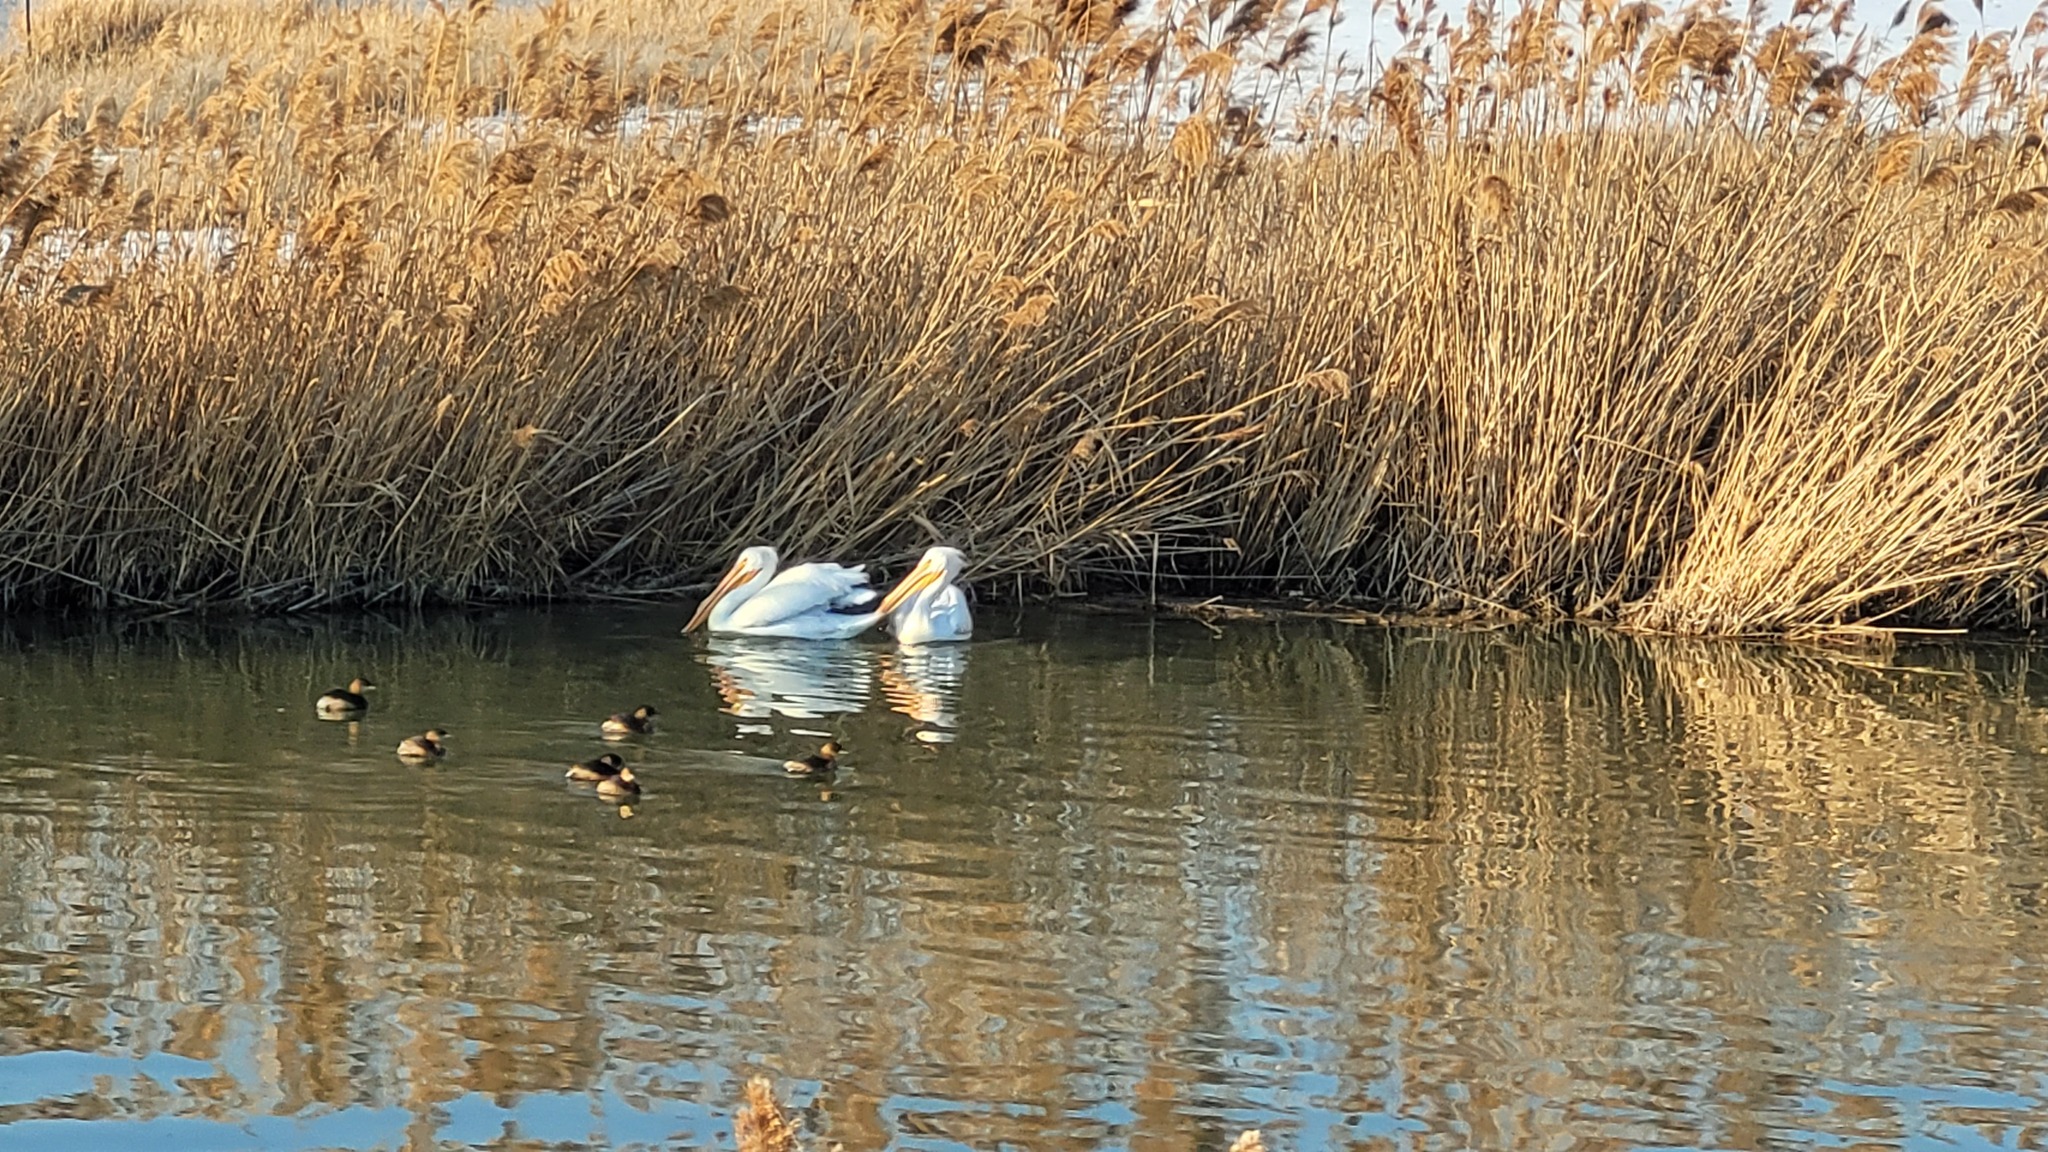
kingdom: Animalia
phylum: Chordata
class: Aves
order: Pelecaniformes
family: Pelecanidae
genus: Pelecanus
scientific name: Pelecanus erythrorhynchos
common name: American white pelican
